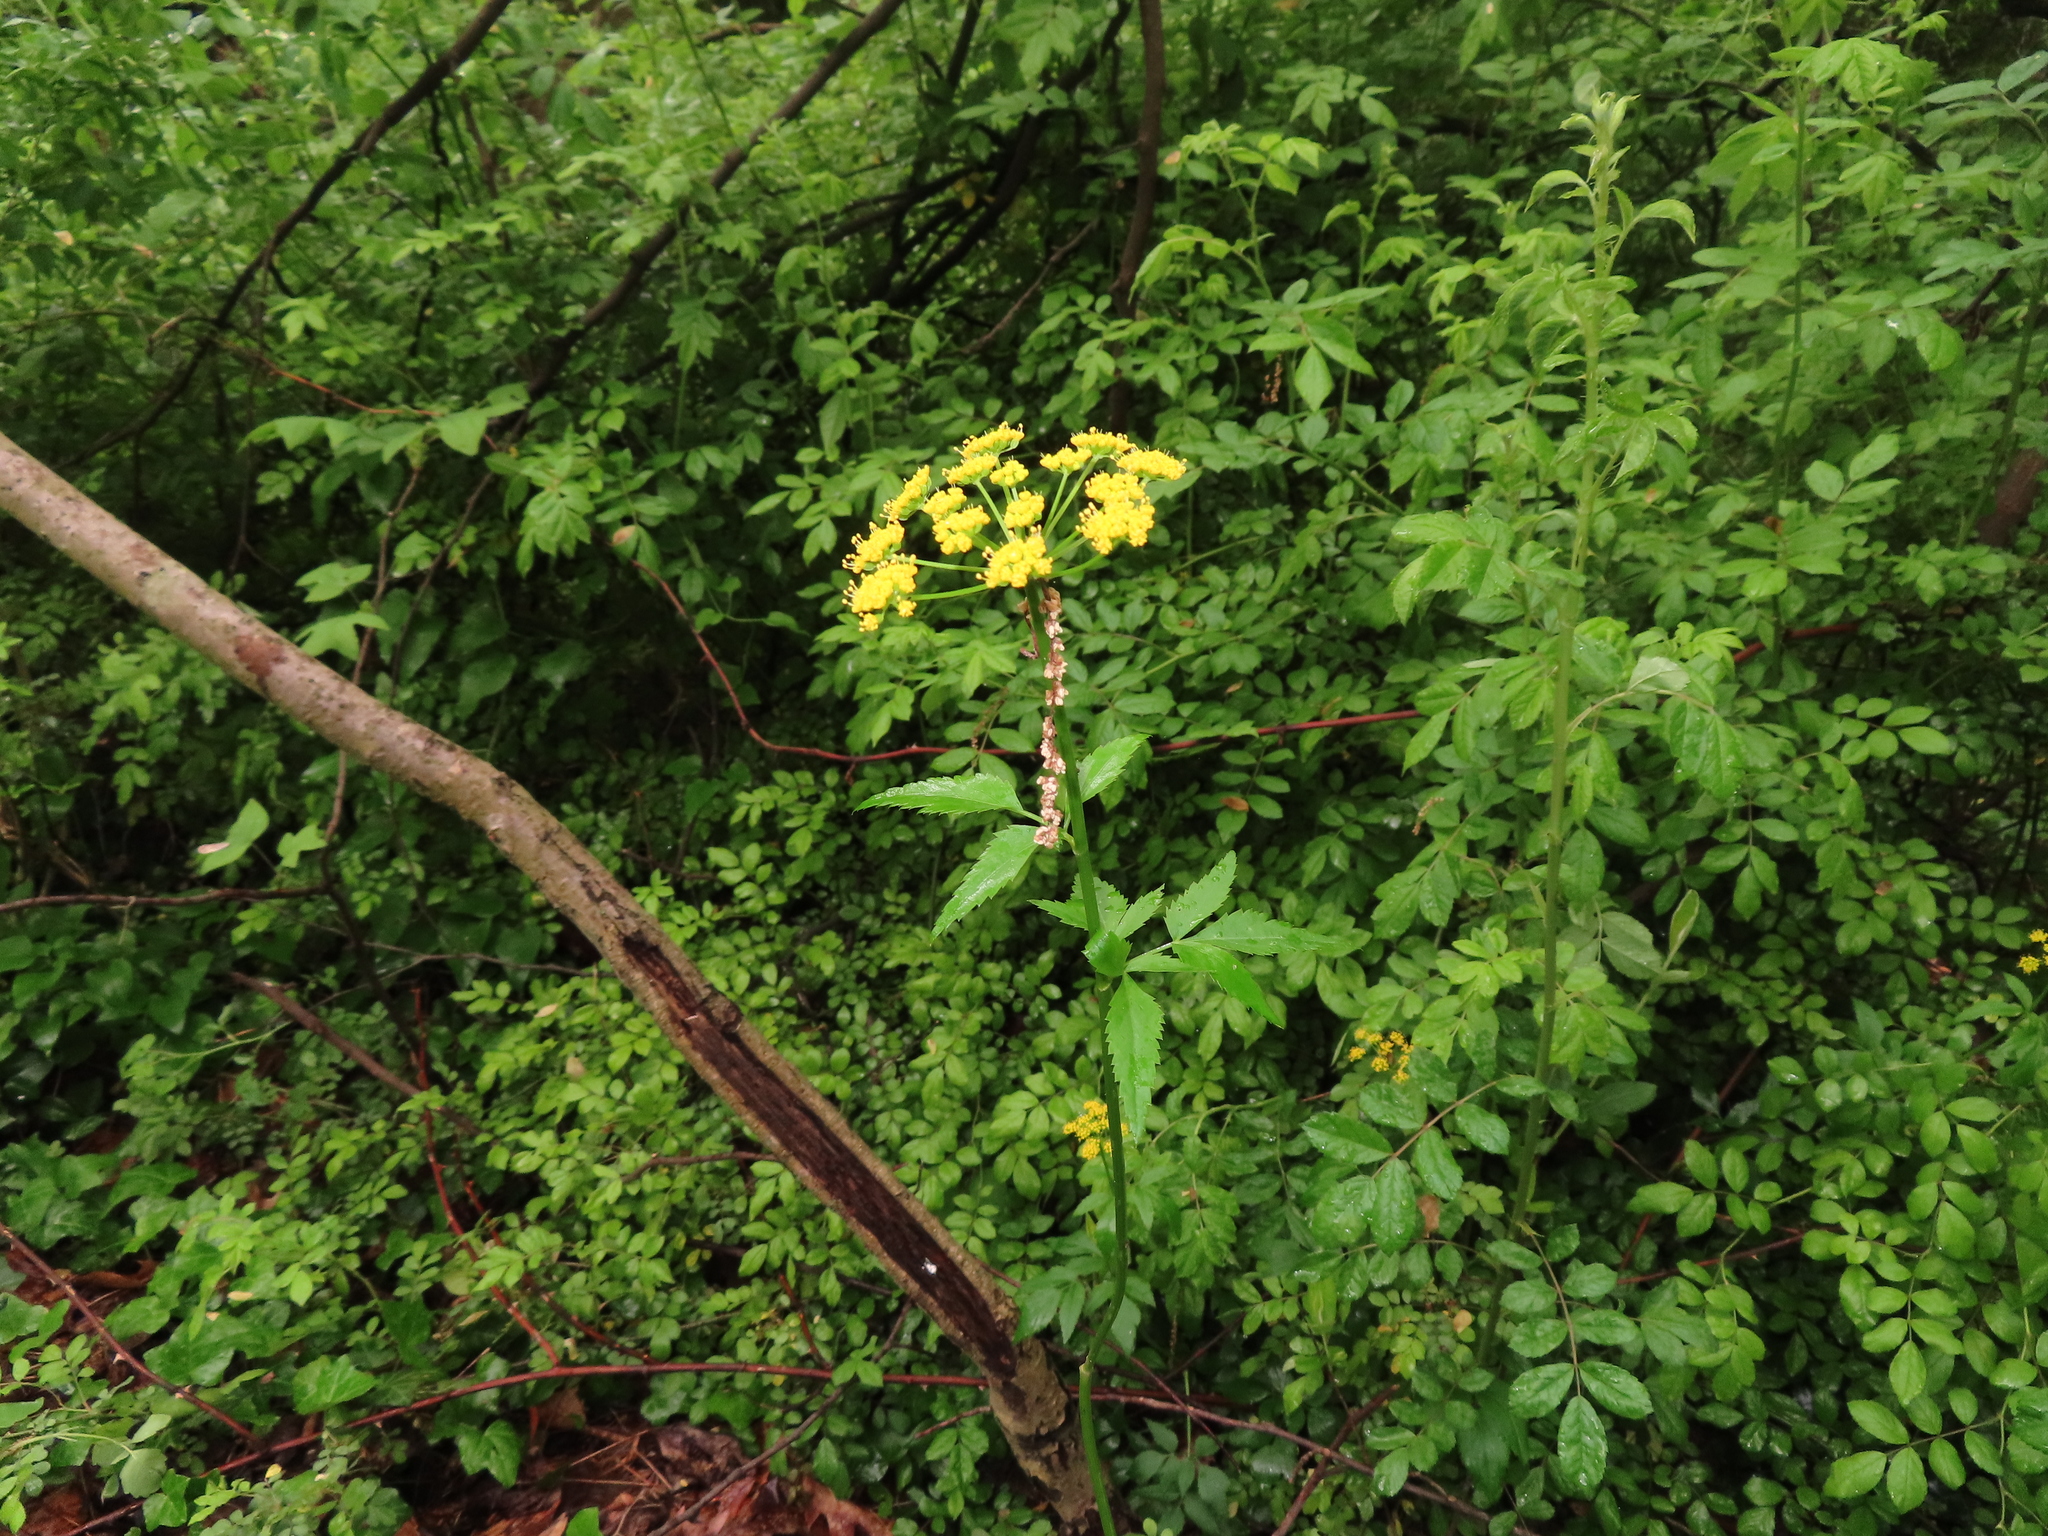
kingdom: Plantae
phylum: Tracheophyta
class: Magnoliopsida
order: Apiales
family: Apiaceae
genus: Zizia
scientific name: Zizia aurea
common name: Golden alexanders
